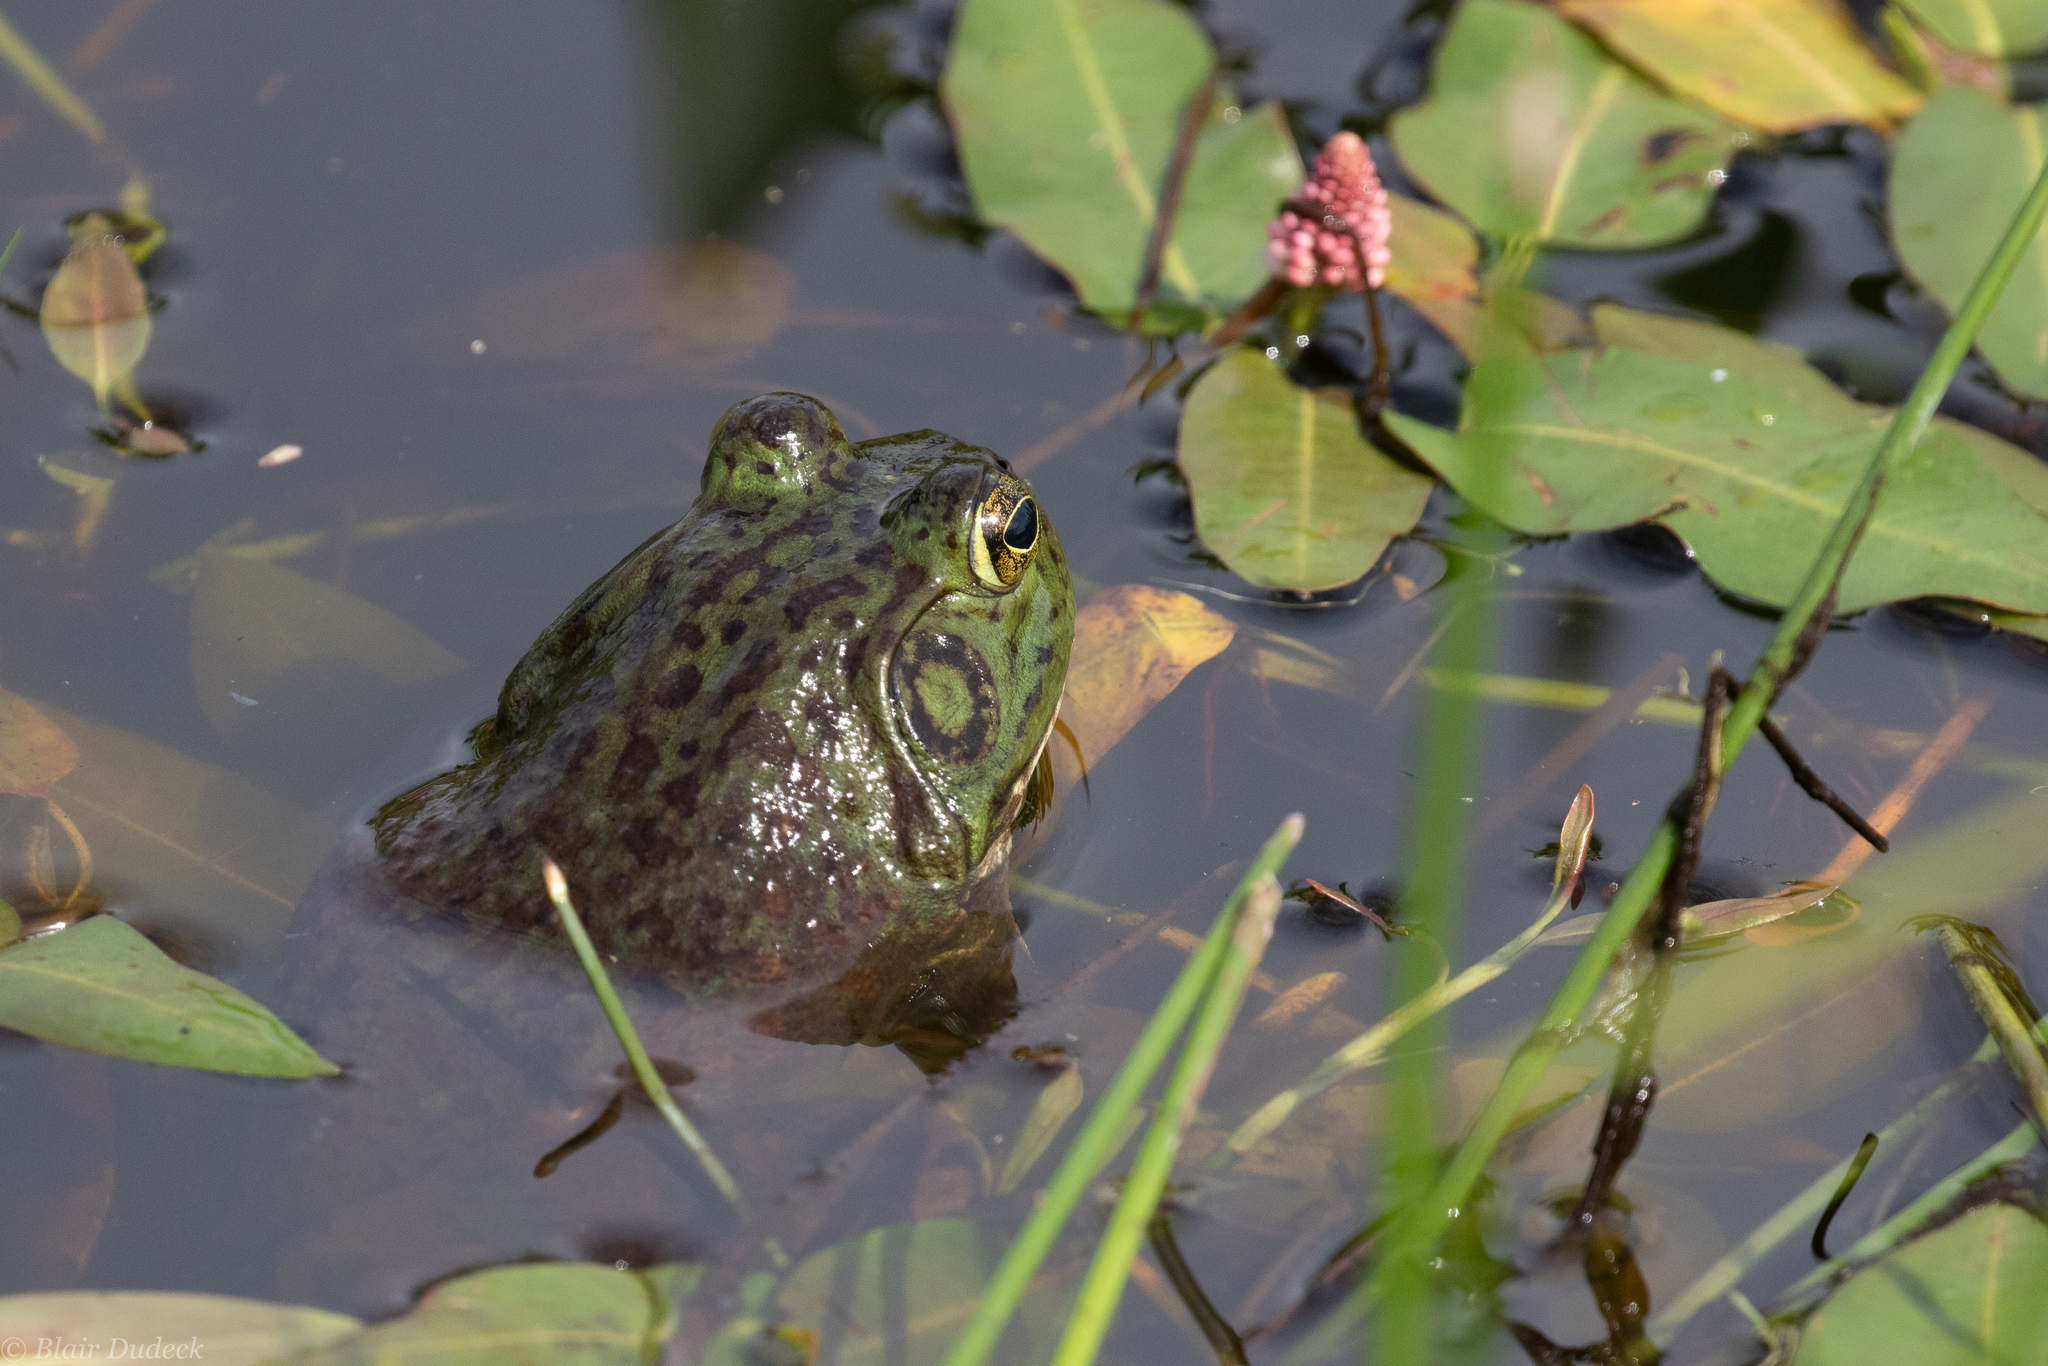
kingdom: Animalia
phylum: Chordata
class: Amphibia
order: Anura
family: Ranidae
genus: Lithobates
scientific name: Lithobates catesbeianus
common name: American bullfrog
